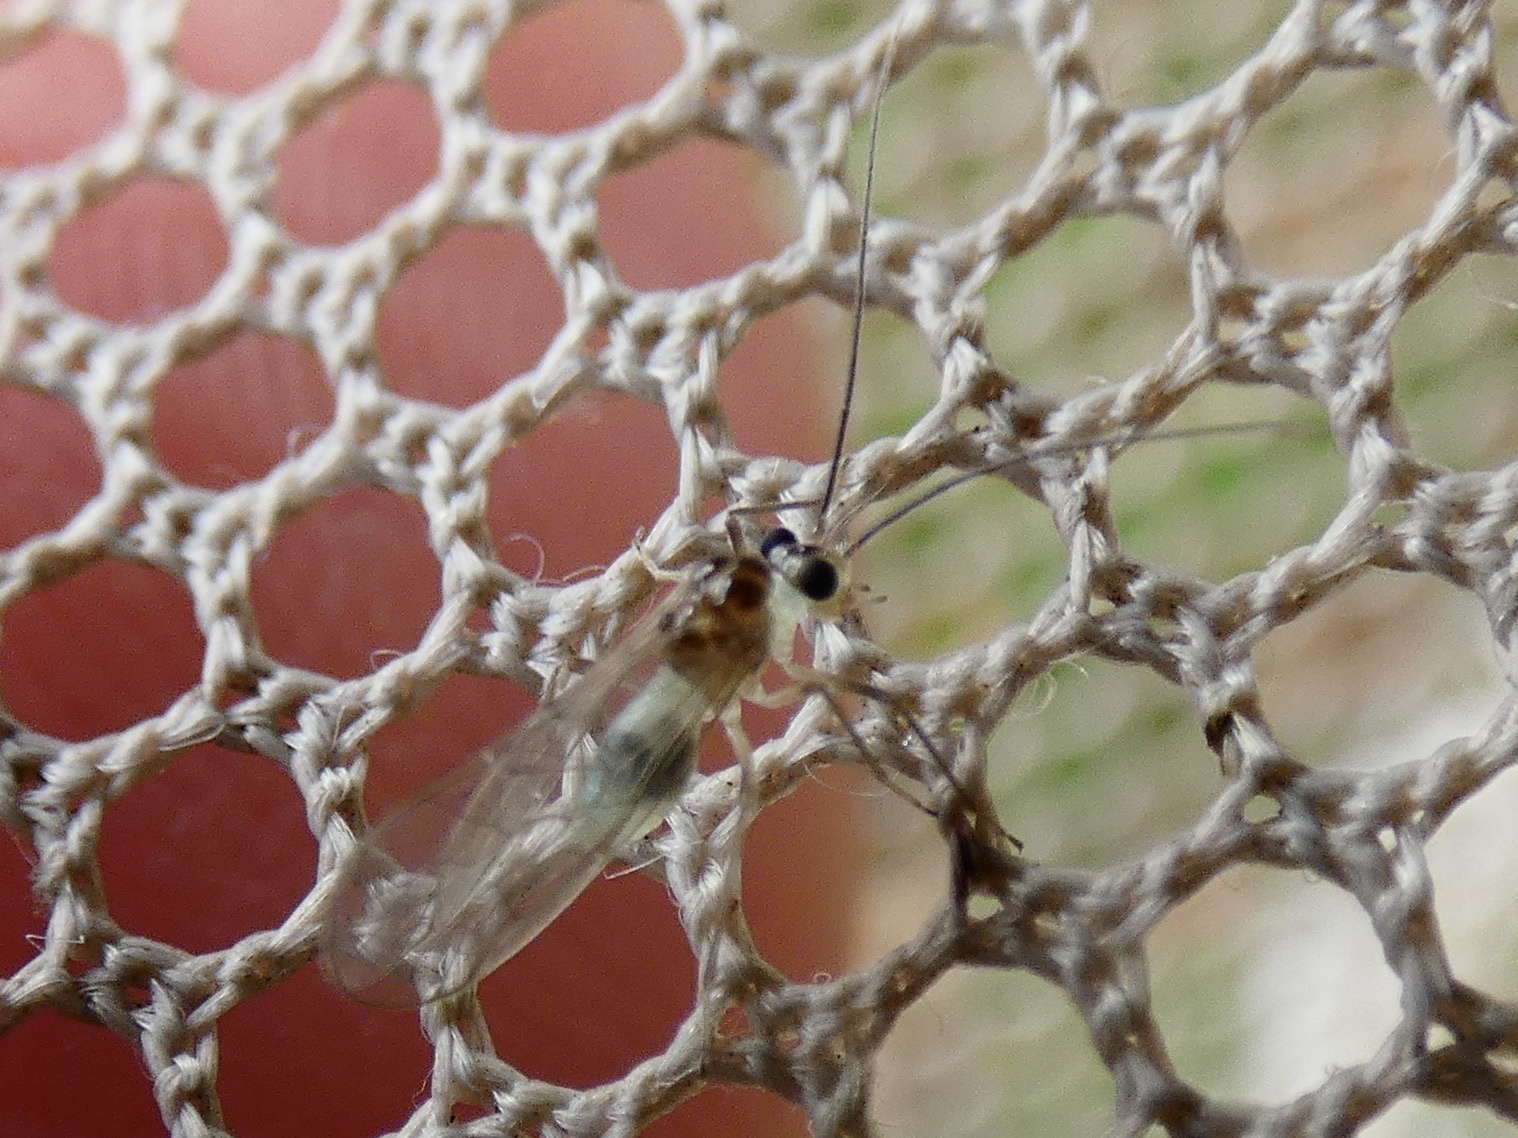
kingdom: Animalia
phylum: Arthropoda
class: Insecta
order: Psocodea
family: Stenopsocidae
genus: Stenopsocus
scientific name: Stenopsocus immaculatus
